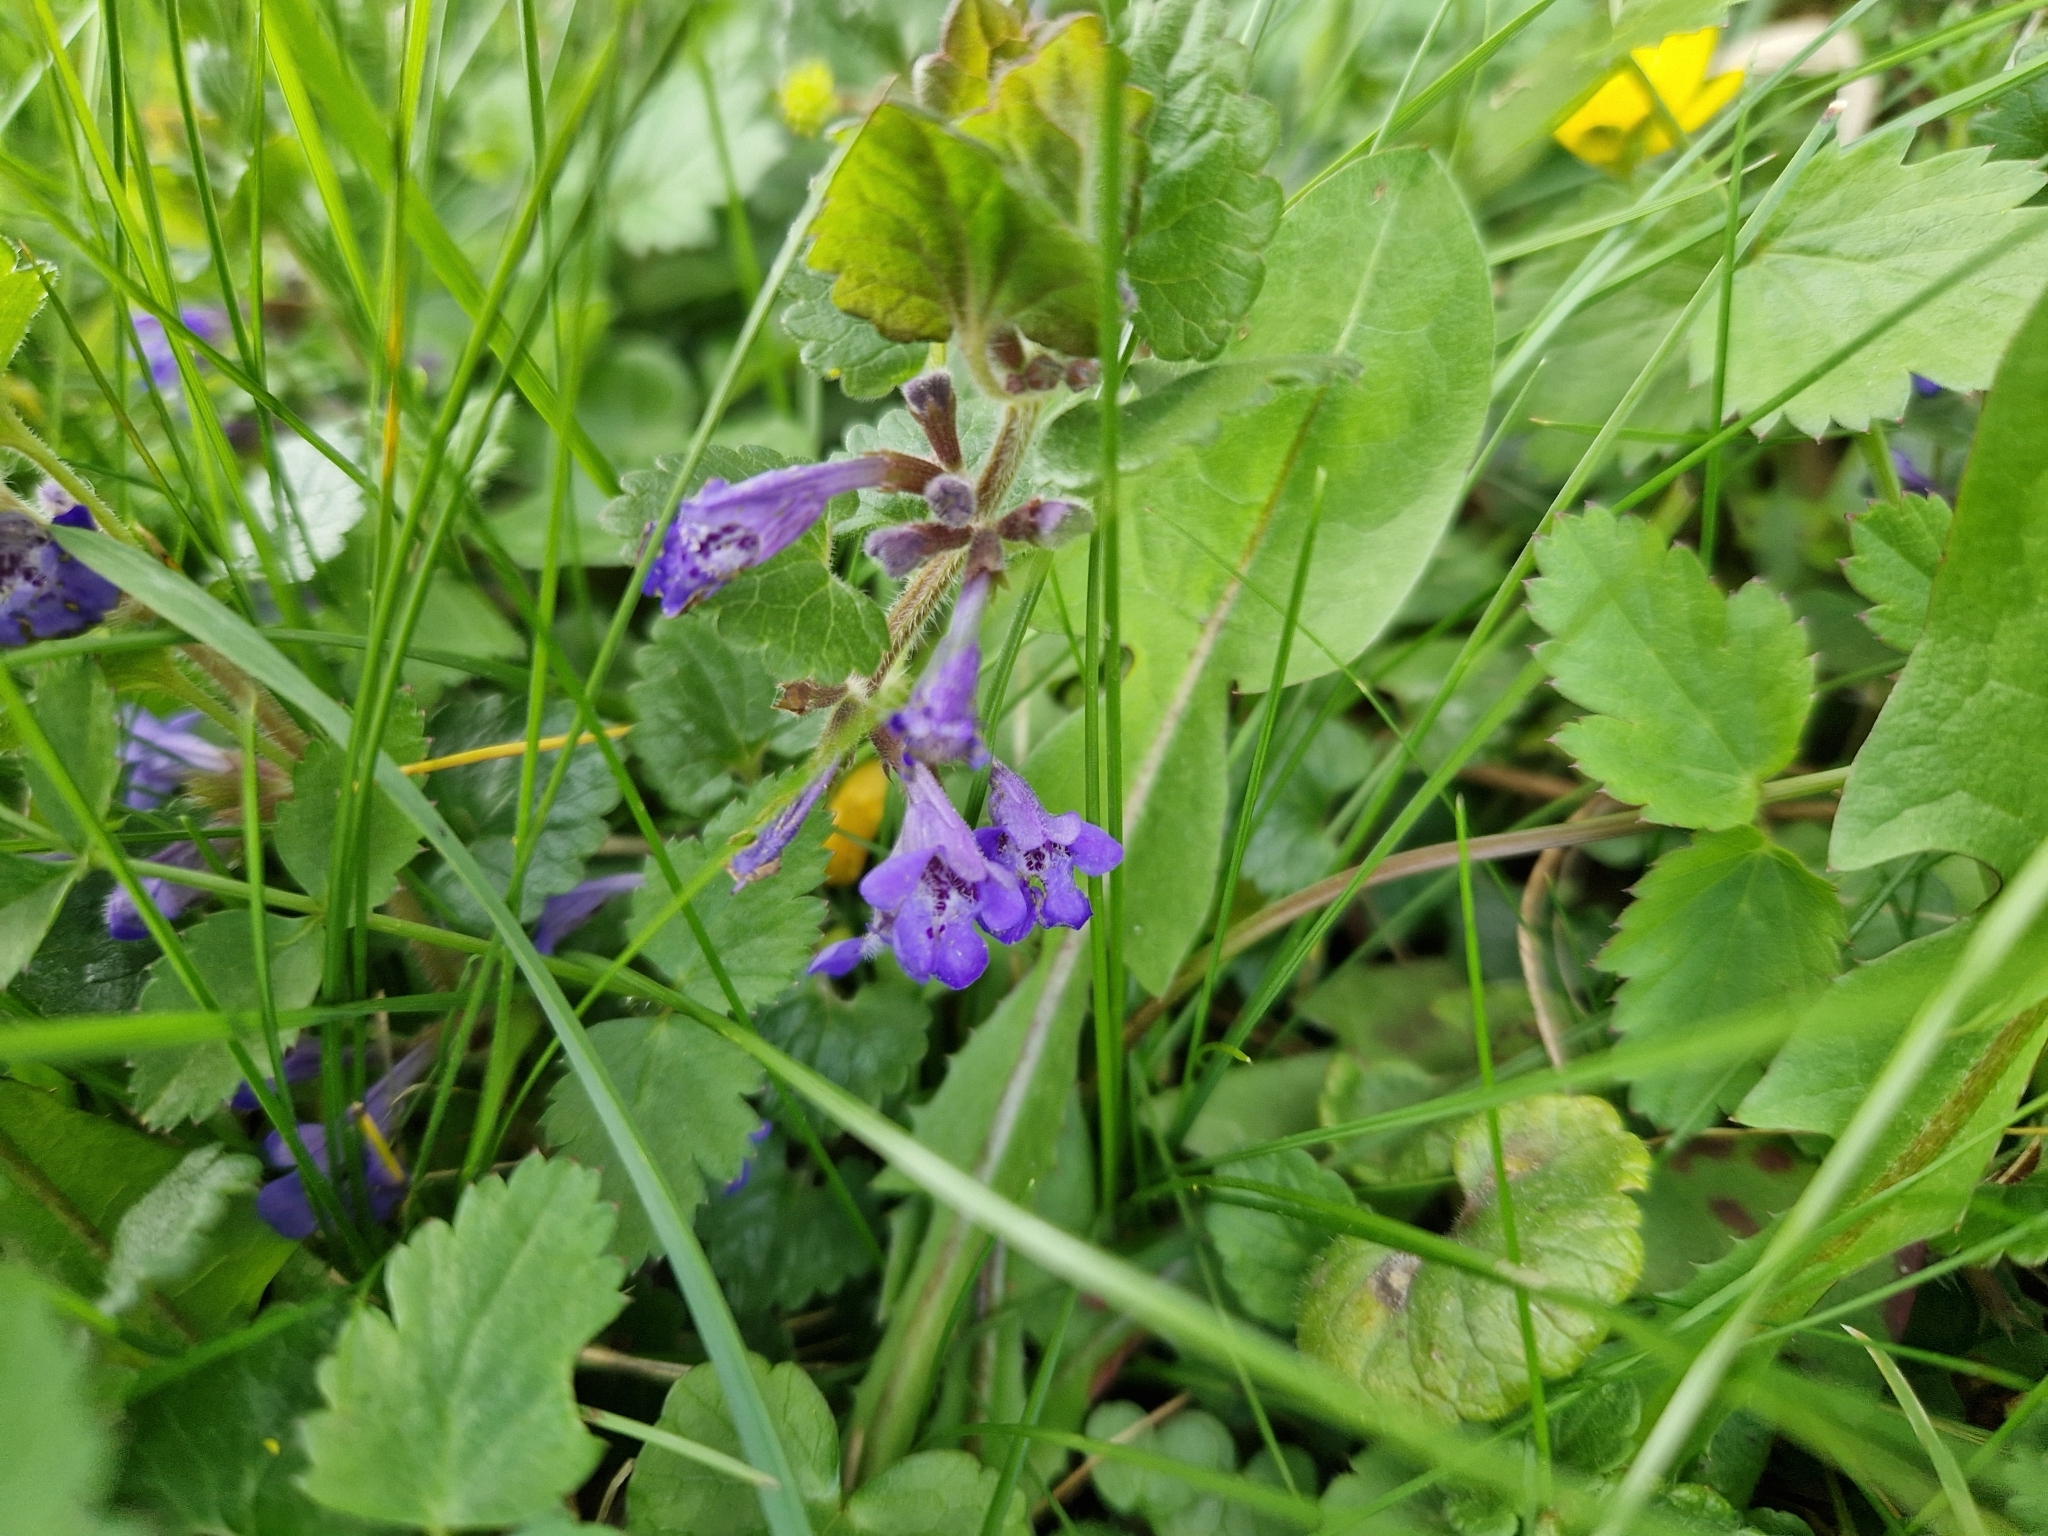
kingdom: Plantae
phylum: Tracheophyta
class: Magnoliopsida
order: Lamiales
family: Lamiaceae
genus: Glechoma
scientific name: Glechoma hederacea
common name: Ground ivy
